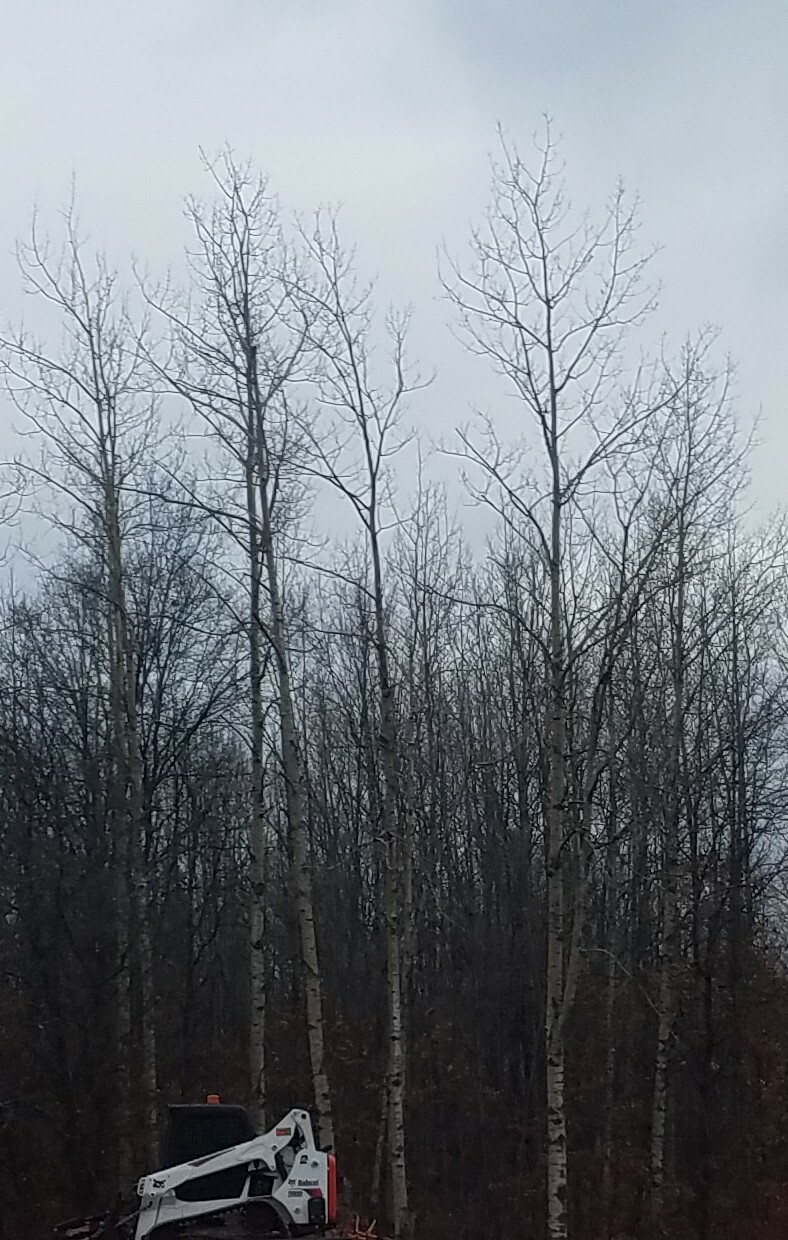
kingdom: Plantae
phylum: Tracheophyta
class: Magnoliopsida
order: Malpighiales
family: Salicaceae
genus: Populus
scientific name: Populus tremuloides
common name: Quaking aspen
